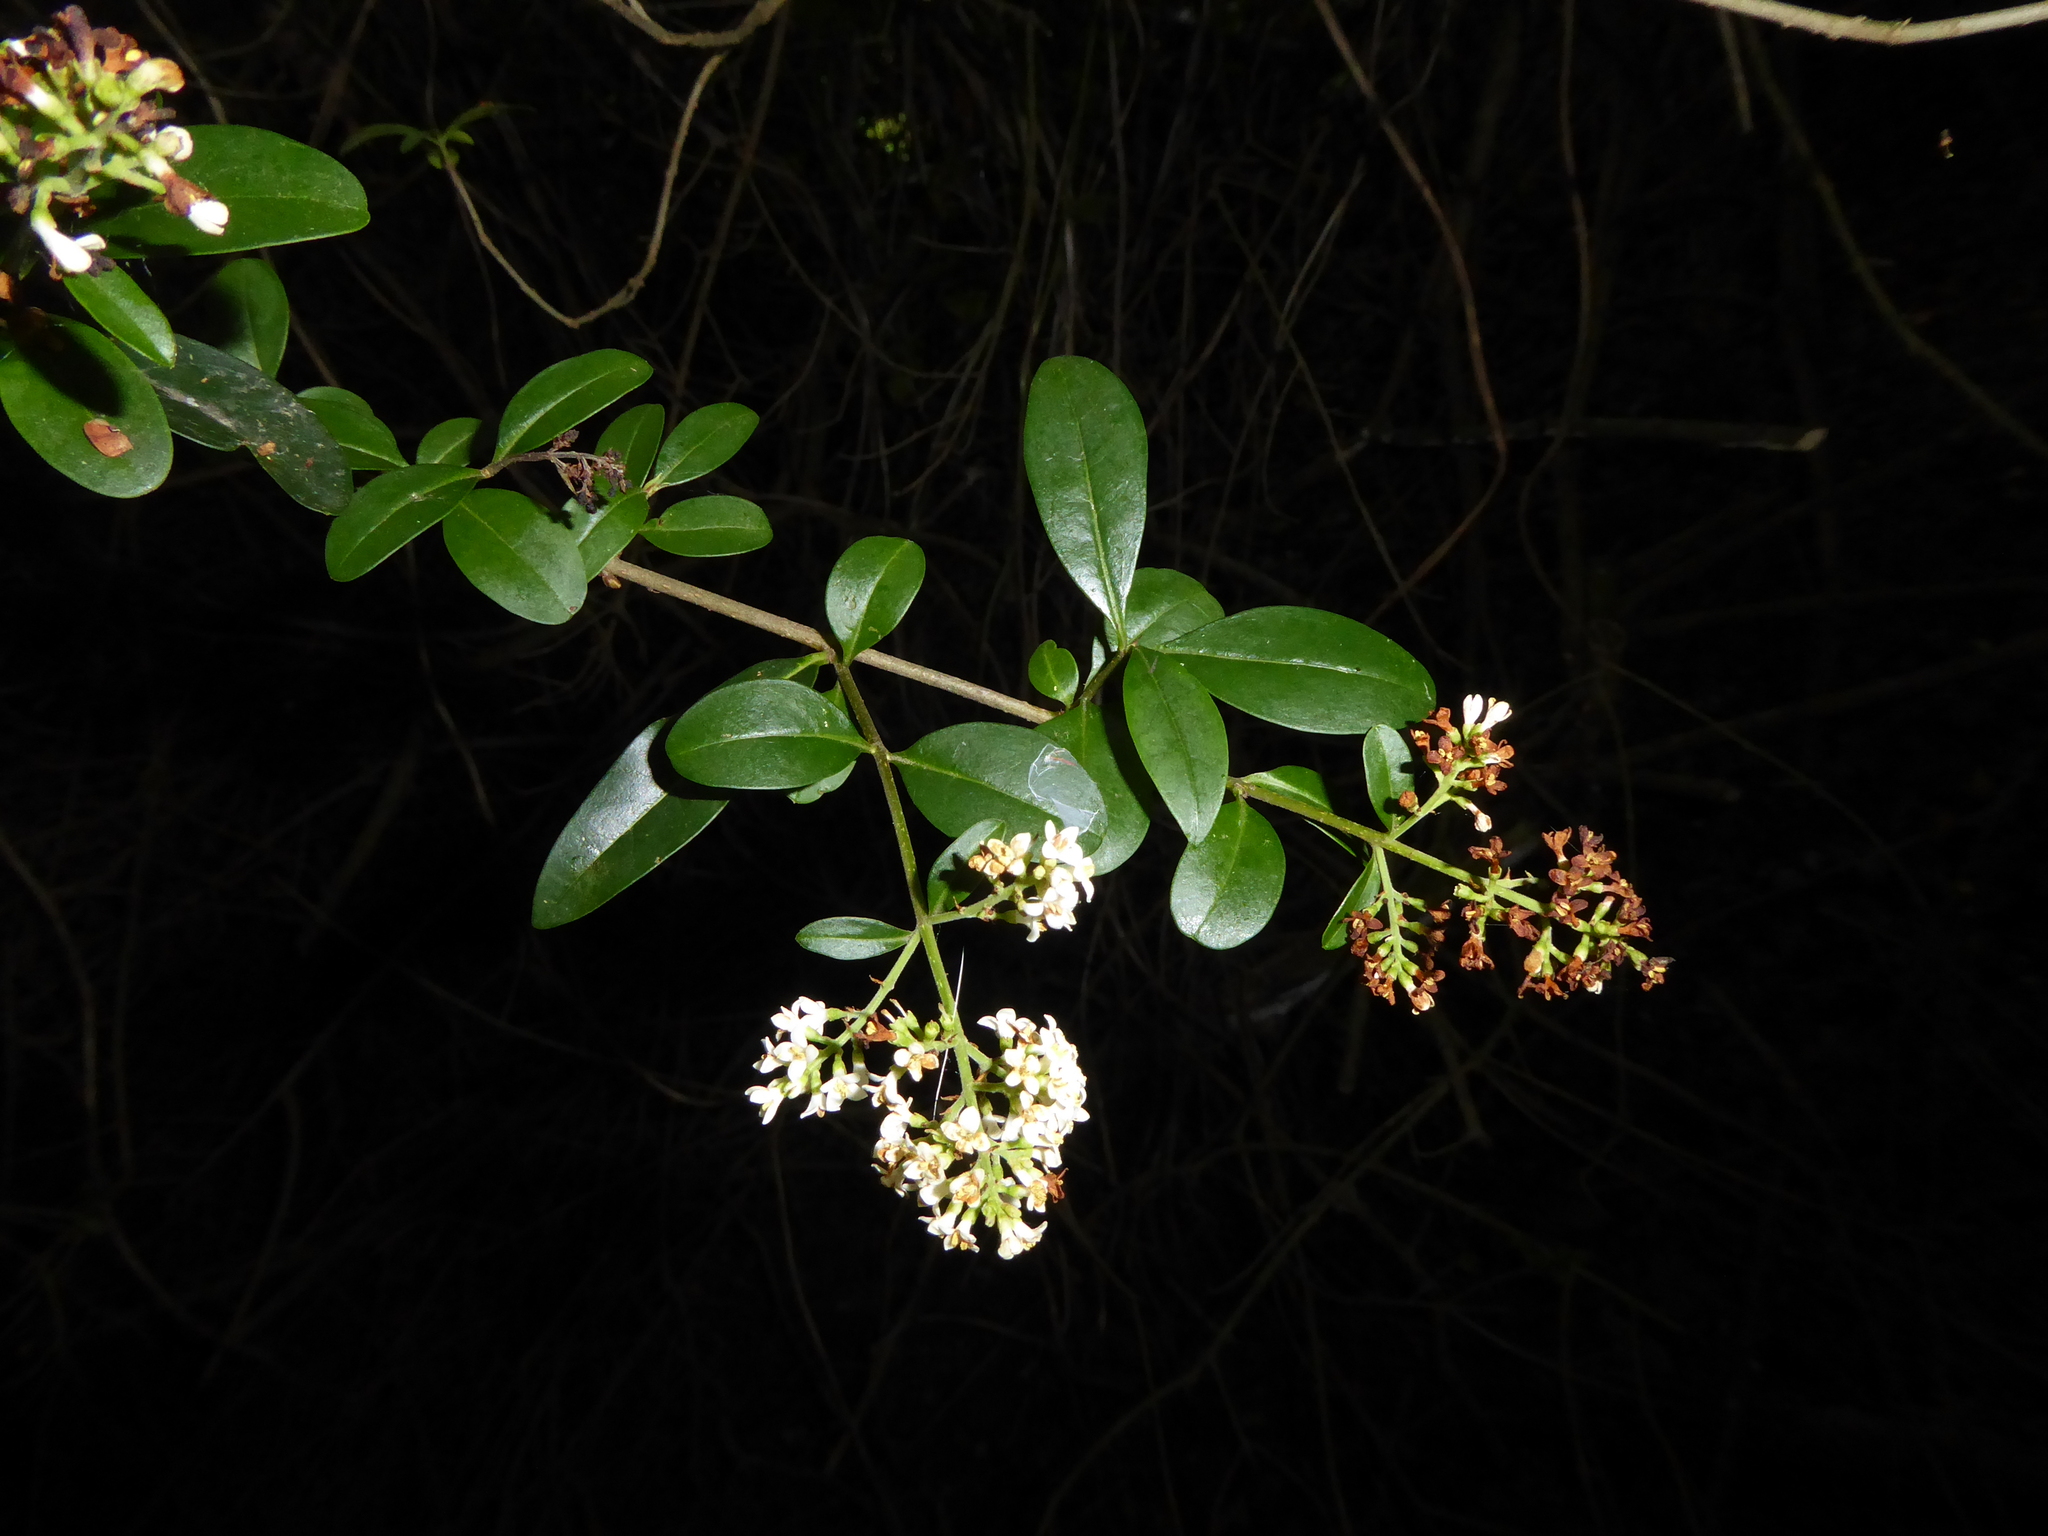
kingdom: Plantae
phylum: Tracheophyta
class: Magnoliopsida
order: Lamiales
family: Oleaceae
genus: Ligustrum
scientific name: Ligustrum vulgare
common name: Wild privet
